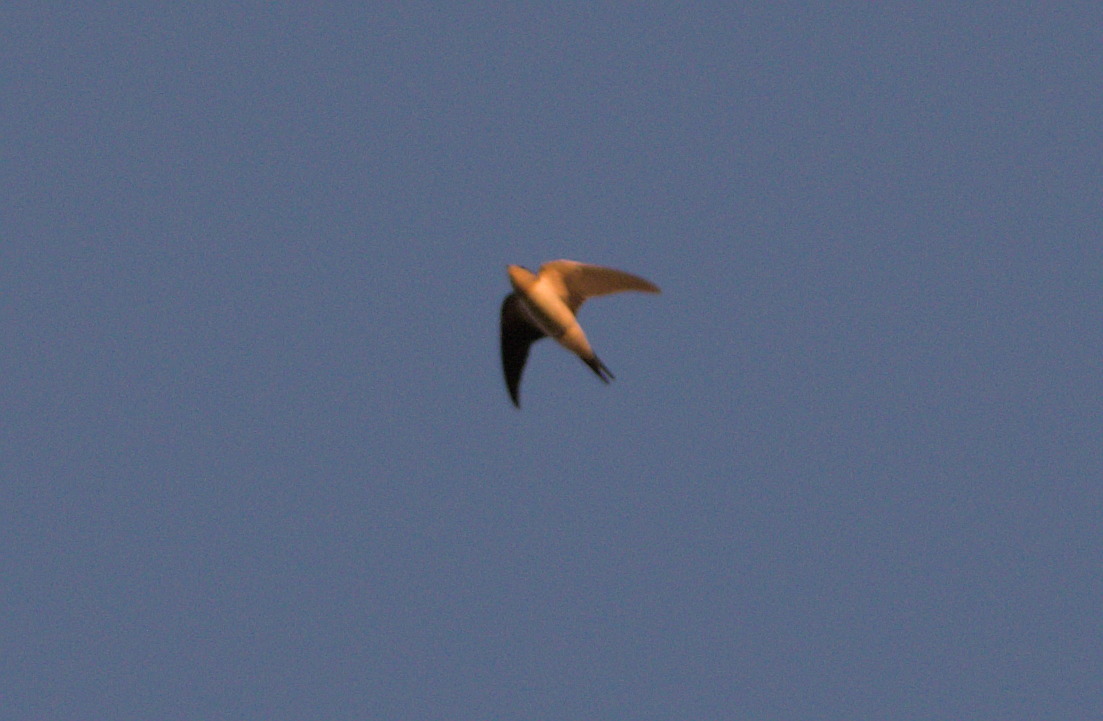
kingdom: Animalia
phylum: Chordata
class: Aves
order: Passeriformes
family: Hirundinidae
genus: Hirundo
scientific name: Hirundo rustica
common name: Barn swallow
